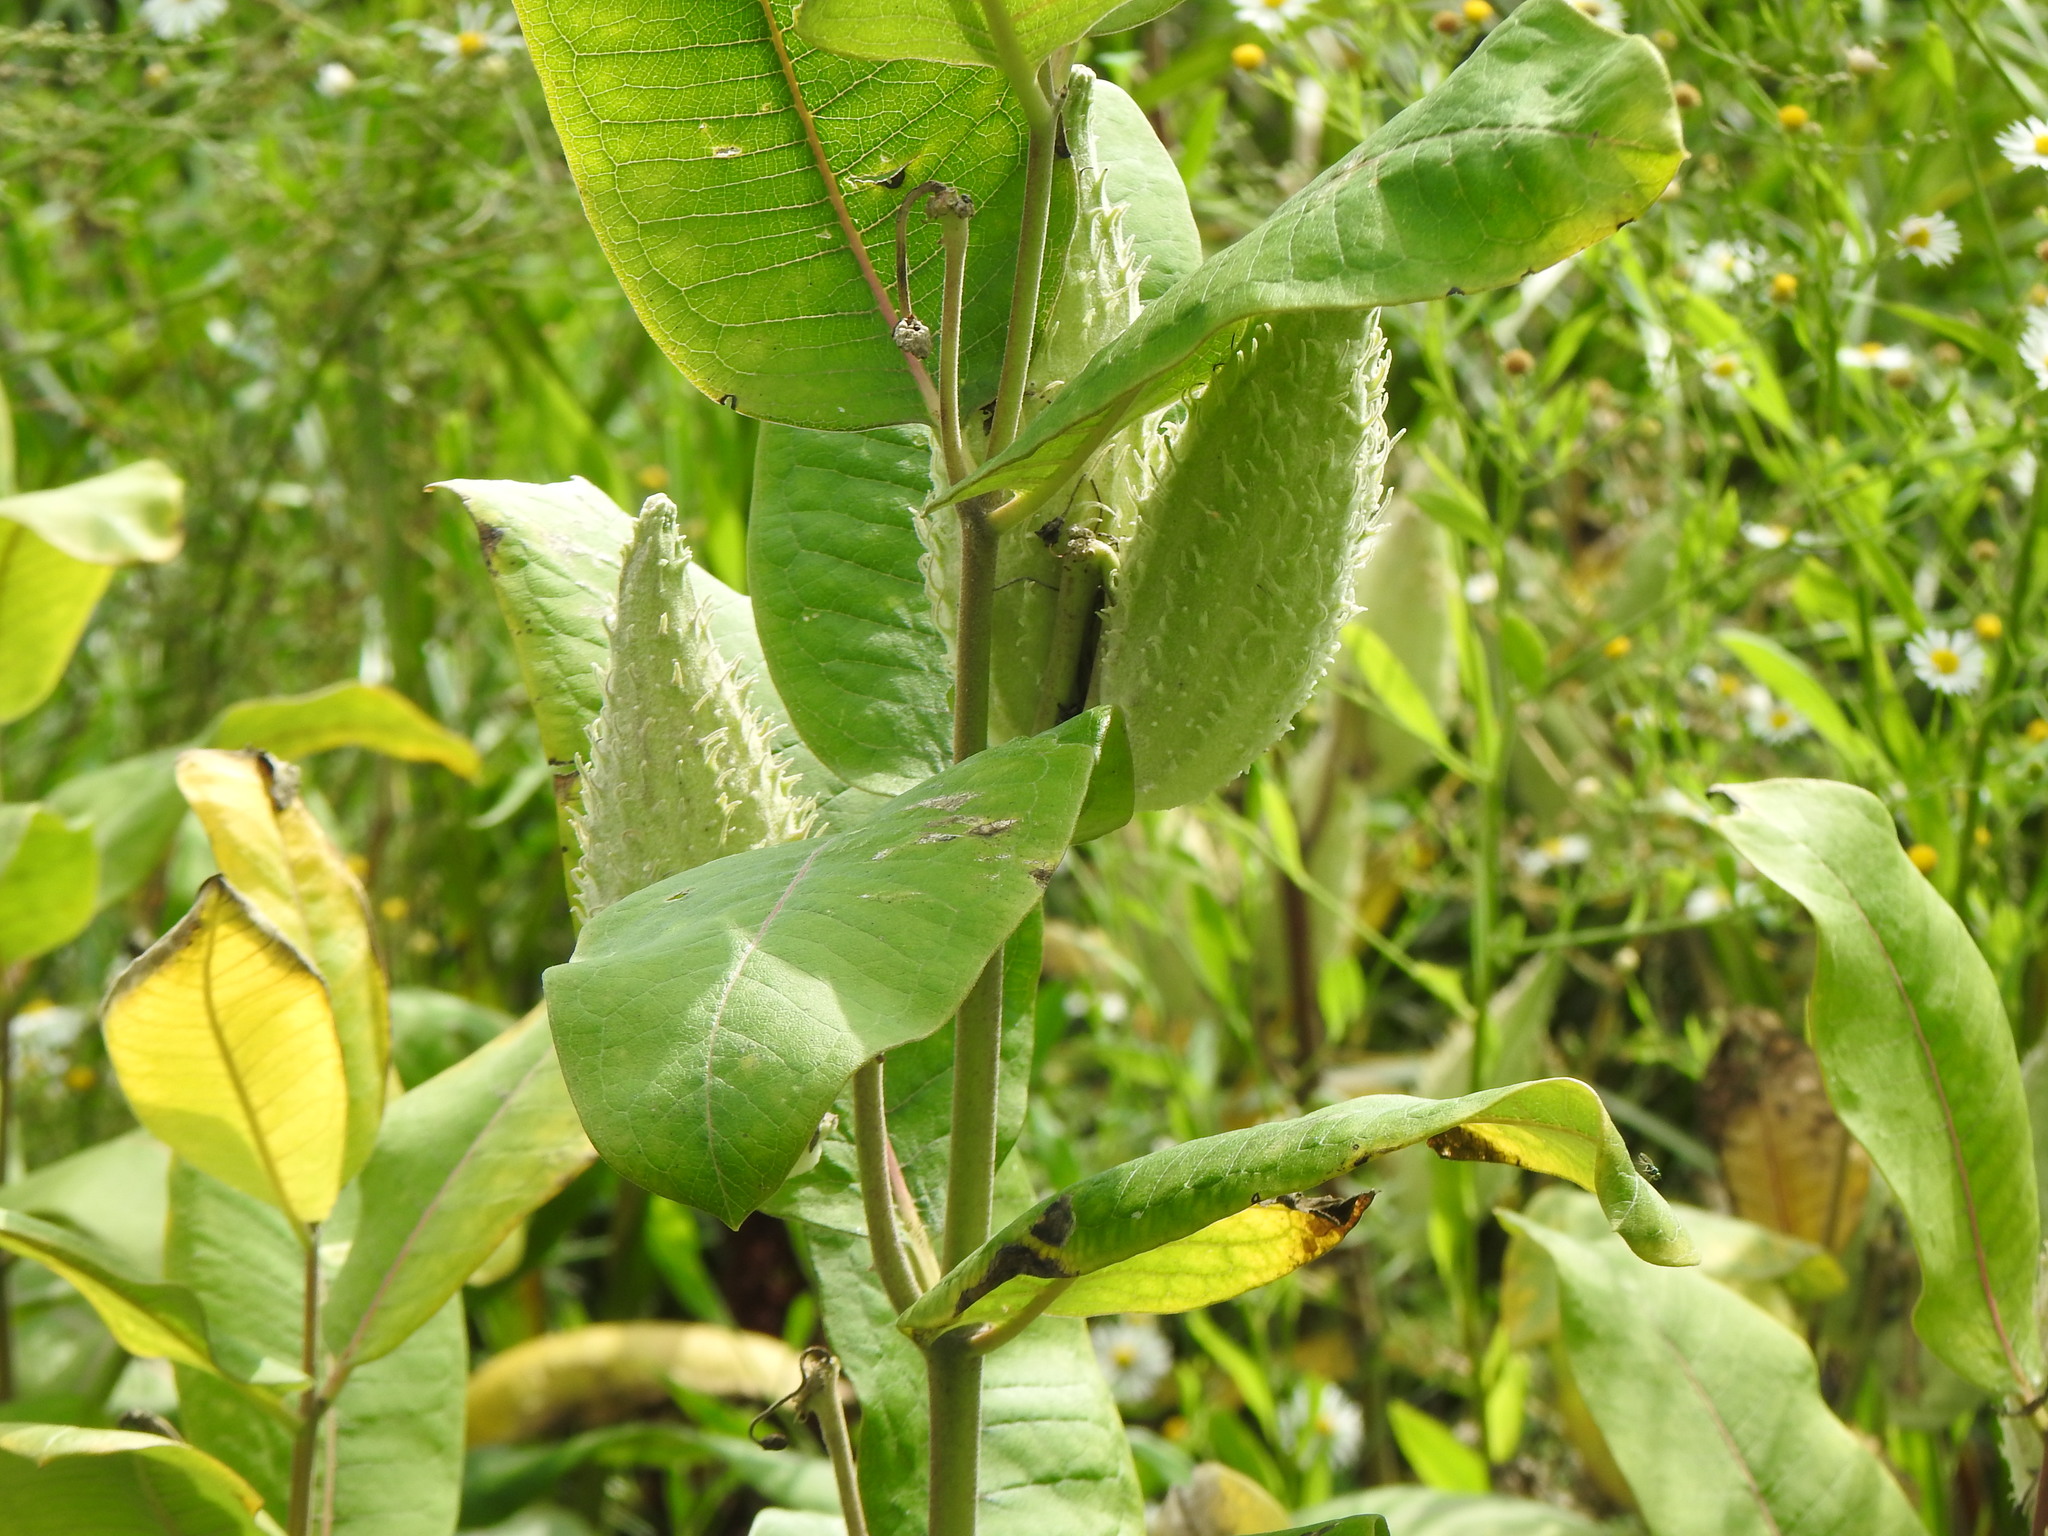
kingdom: Plantae
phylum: Tracheophyta
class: Magnoliopsida
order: Gentianales
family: Apocynaceae
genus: Asclepias
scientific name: Asclepias syriaca
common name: Common milkweed
